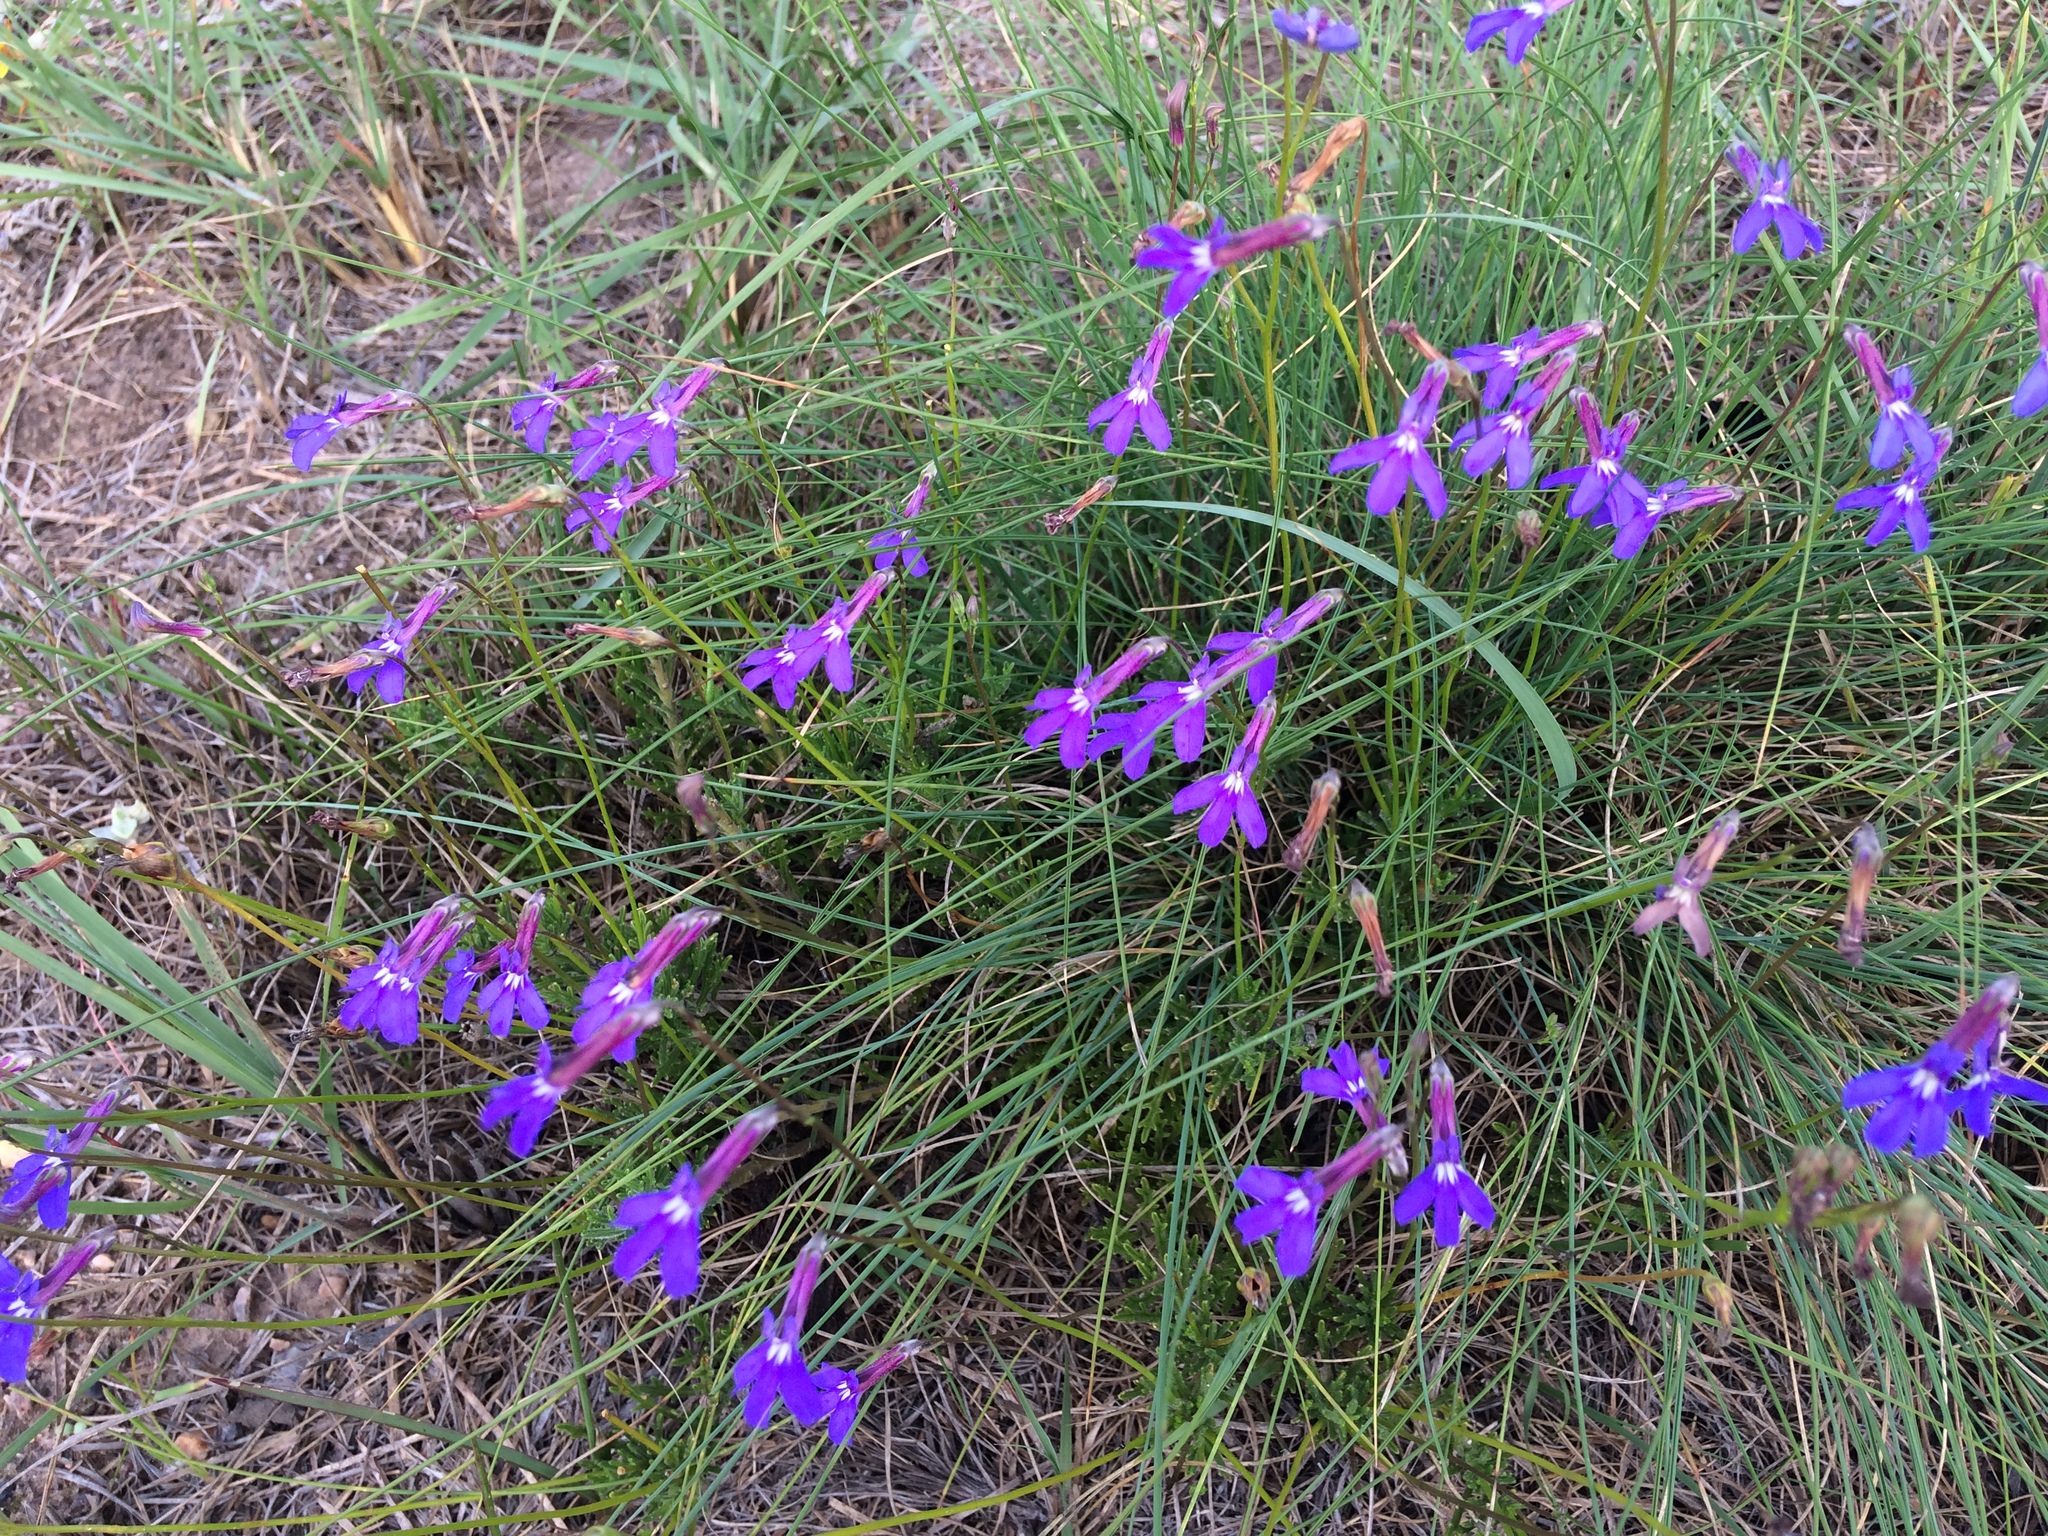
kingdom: Plantae
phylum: Tracheophyta
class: Magnoliopsida
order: Asterales
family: Campanulaceae
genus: Lobelia
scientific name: Lobelia tomentosa
